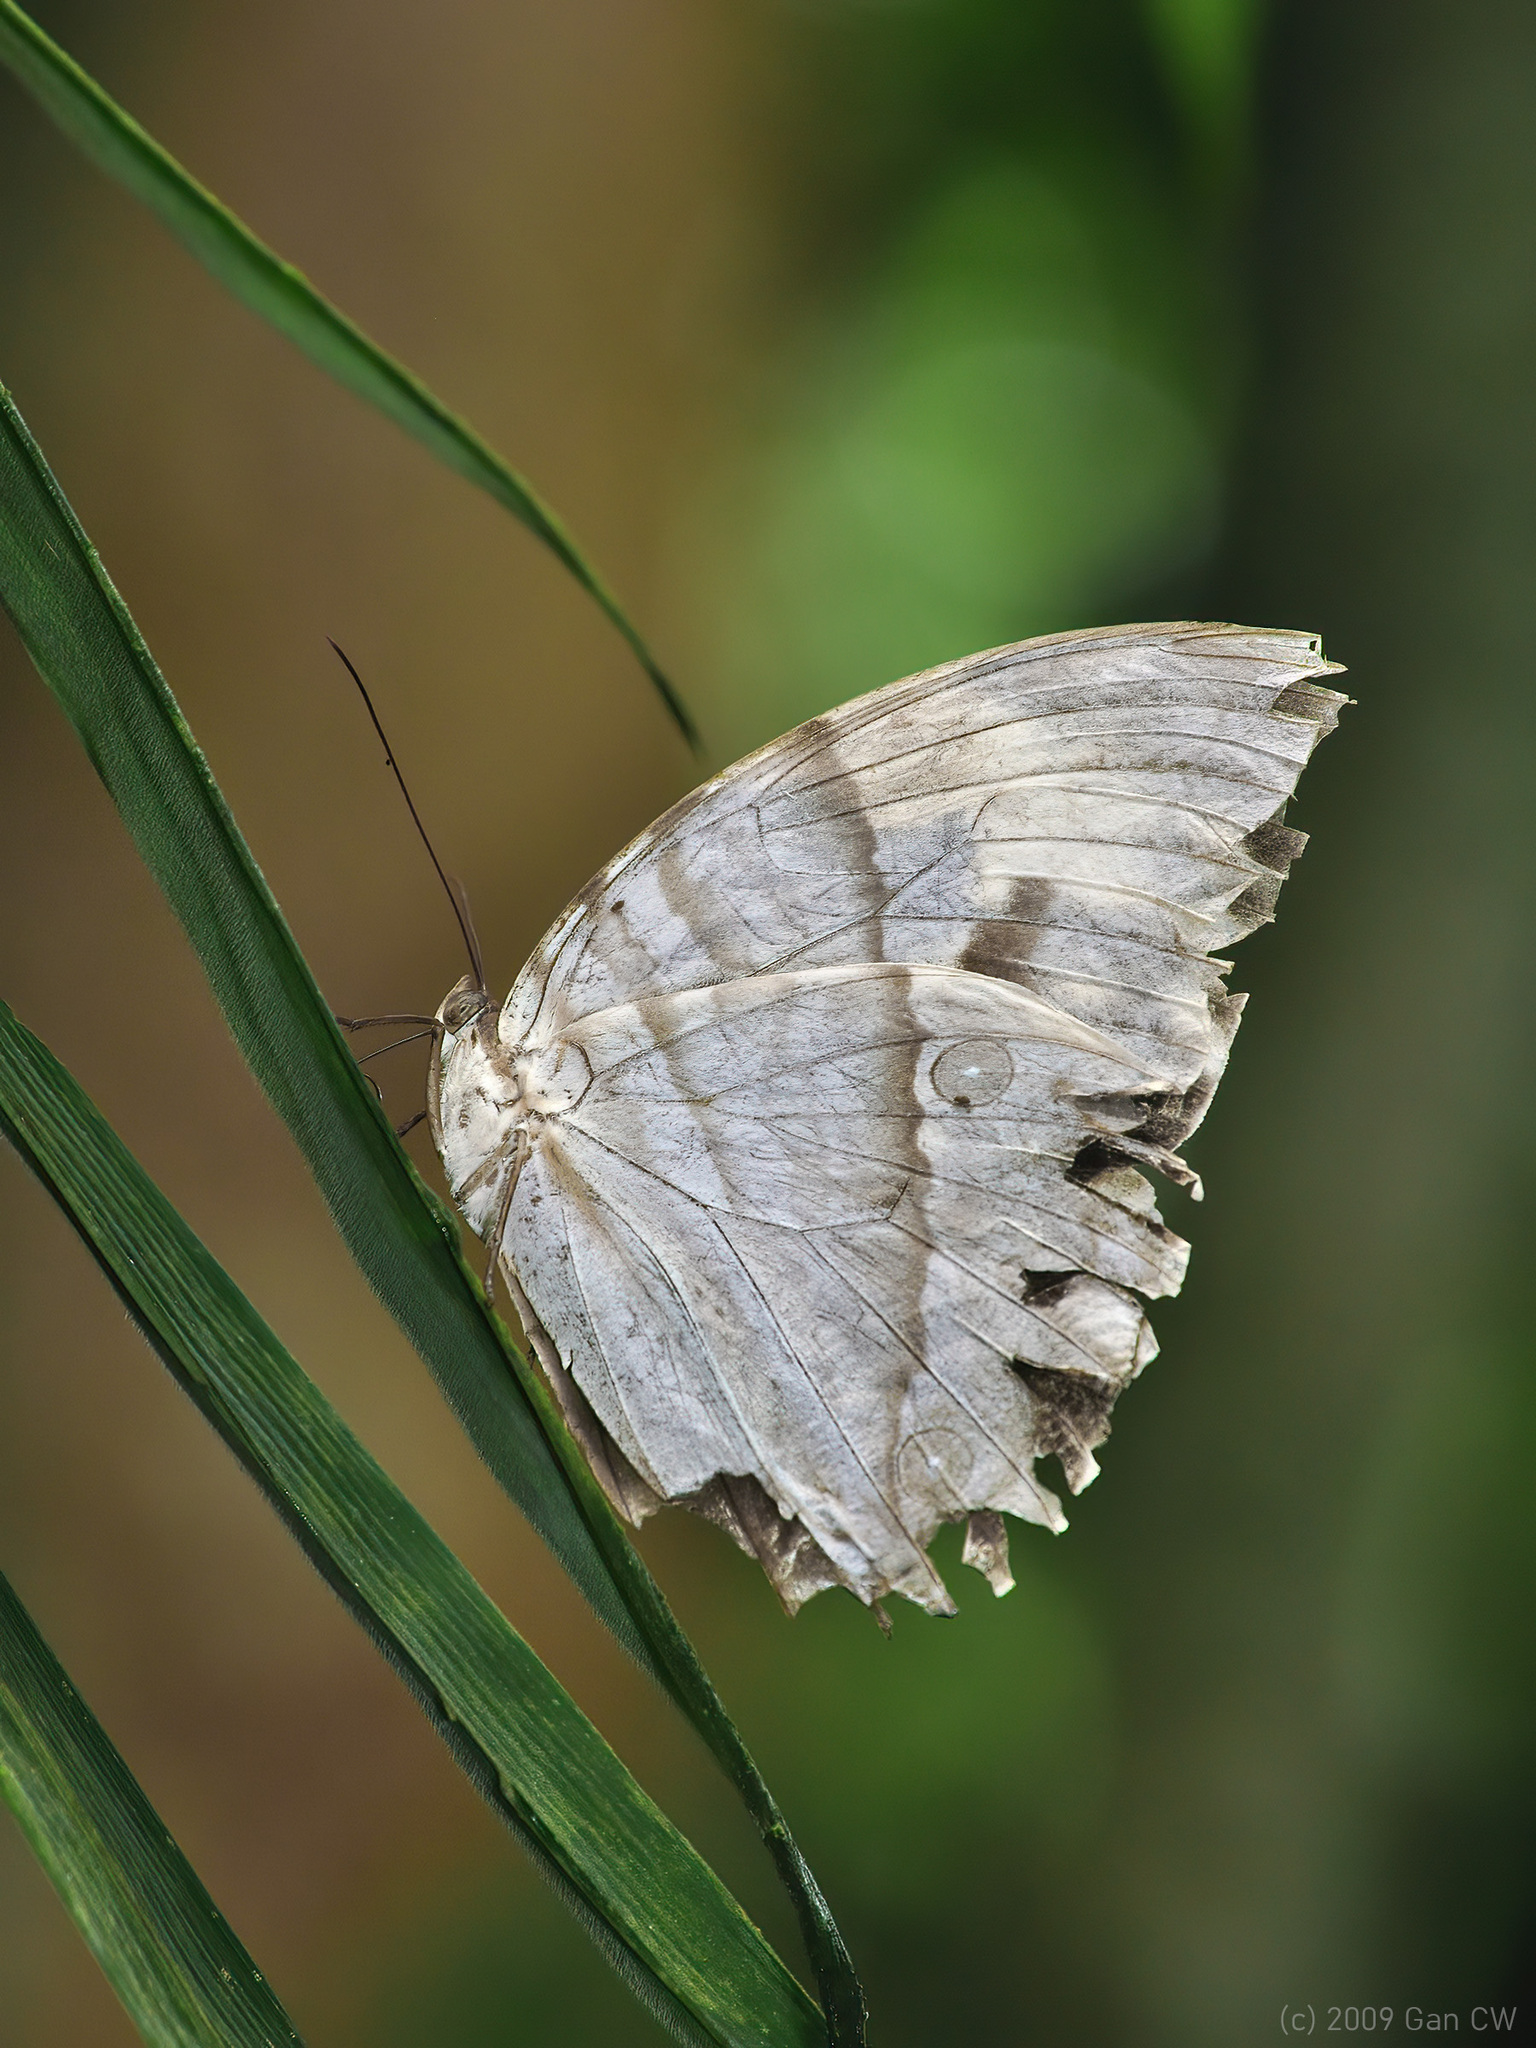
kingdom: Animalia
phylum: Arthropoda
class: Insecta
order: Lepidoptera
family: Nymphalidae
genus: Zeuxidia
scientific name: Zeuxidia aurelia
